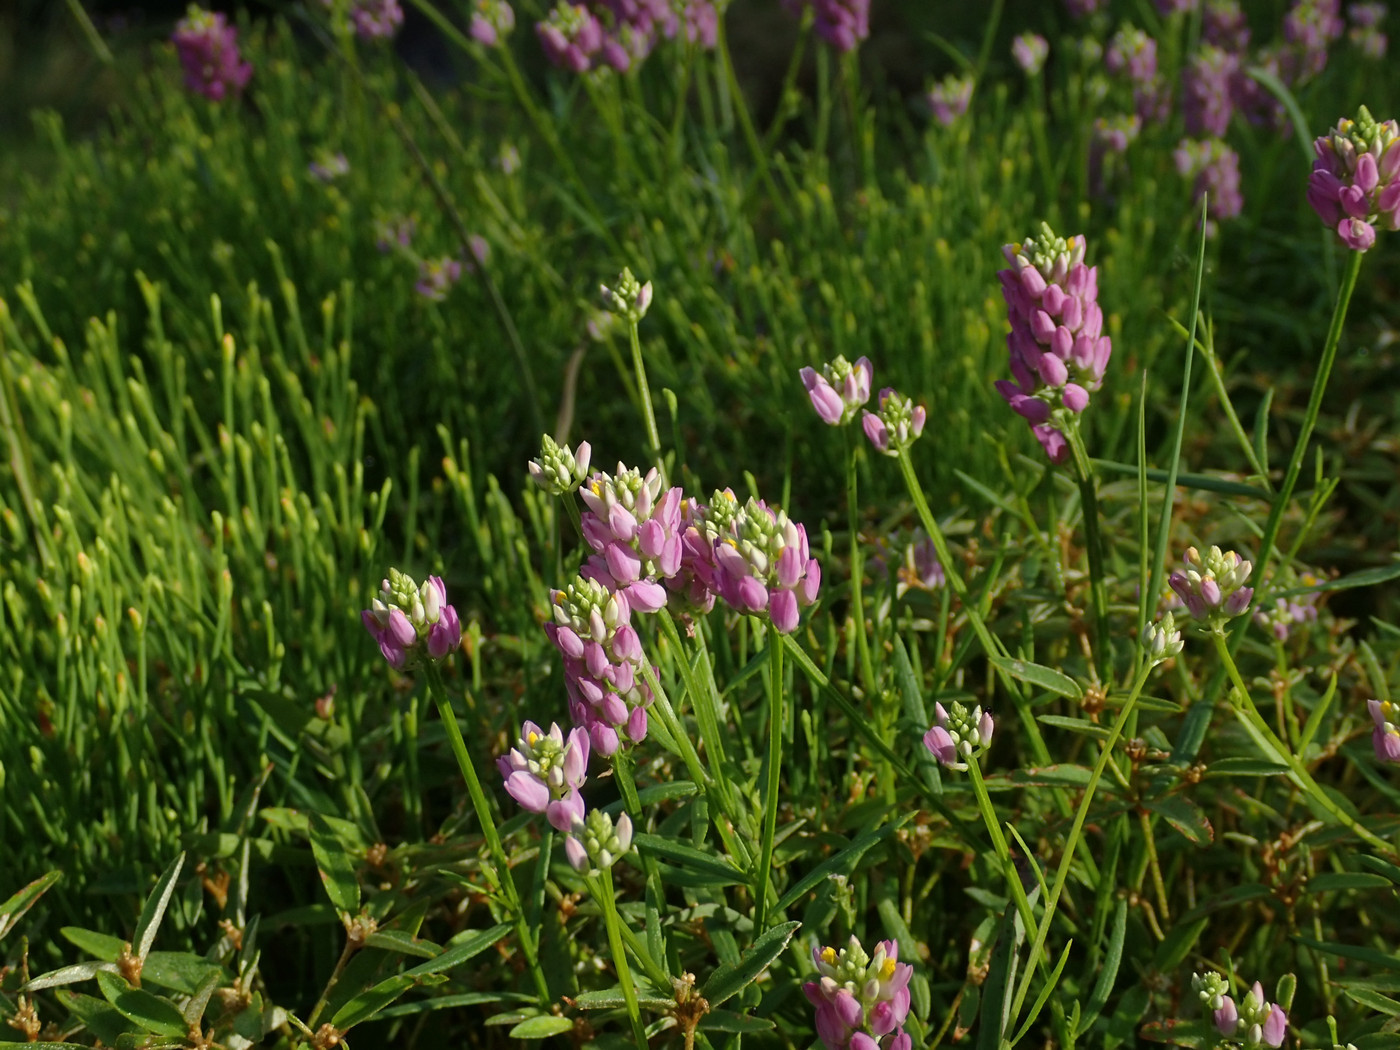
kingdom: Plantae
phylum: Tracheophyta
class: Magnoliopsida
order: Fabales
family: Polygalaceae
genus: Polygala
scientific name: Polygala curtissii
